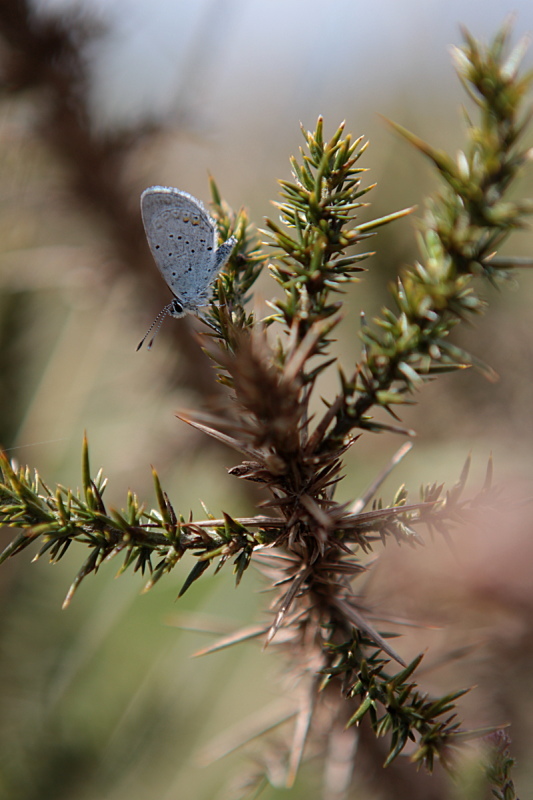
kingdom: Animalia
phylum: Arthropoda
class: Insecta
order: Lepidoptera
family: Lycaenidae
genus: Elkalyce
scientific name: Elkalyce argiades
